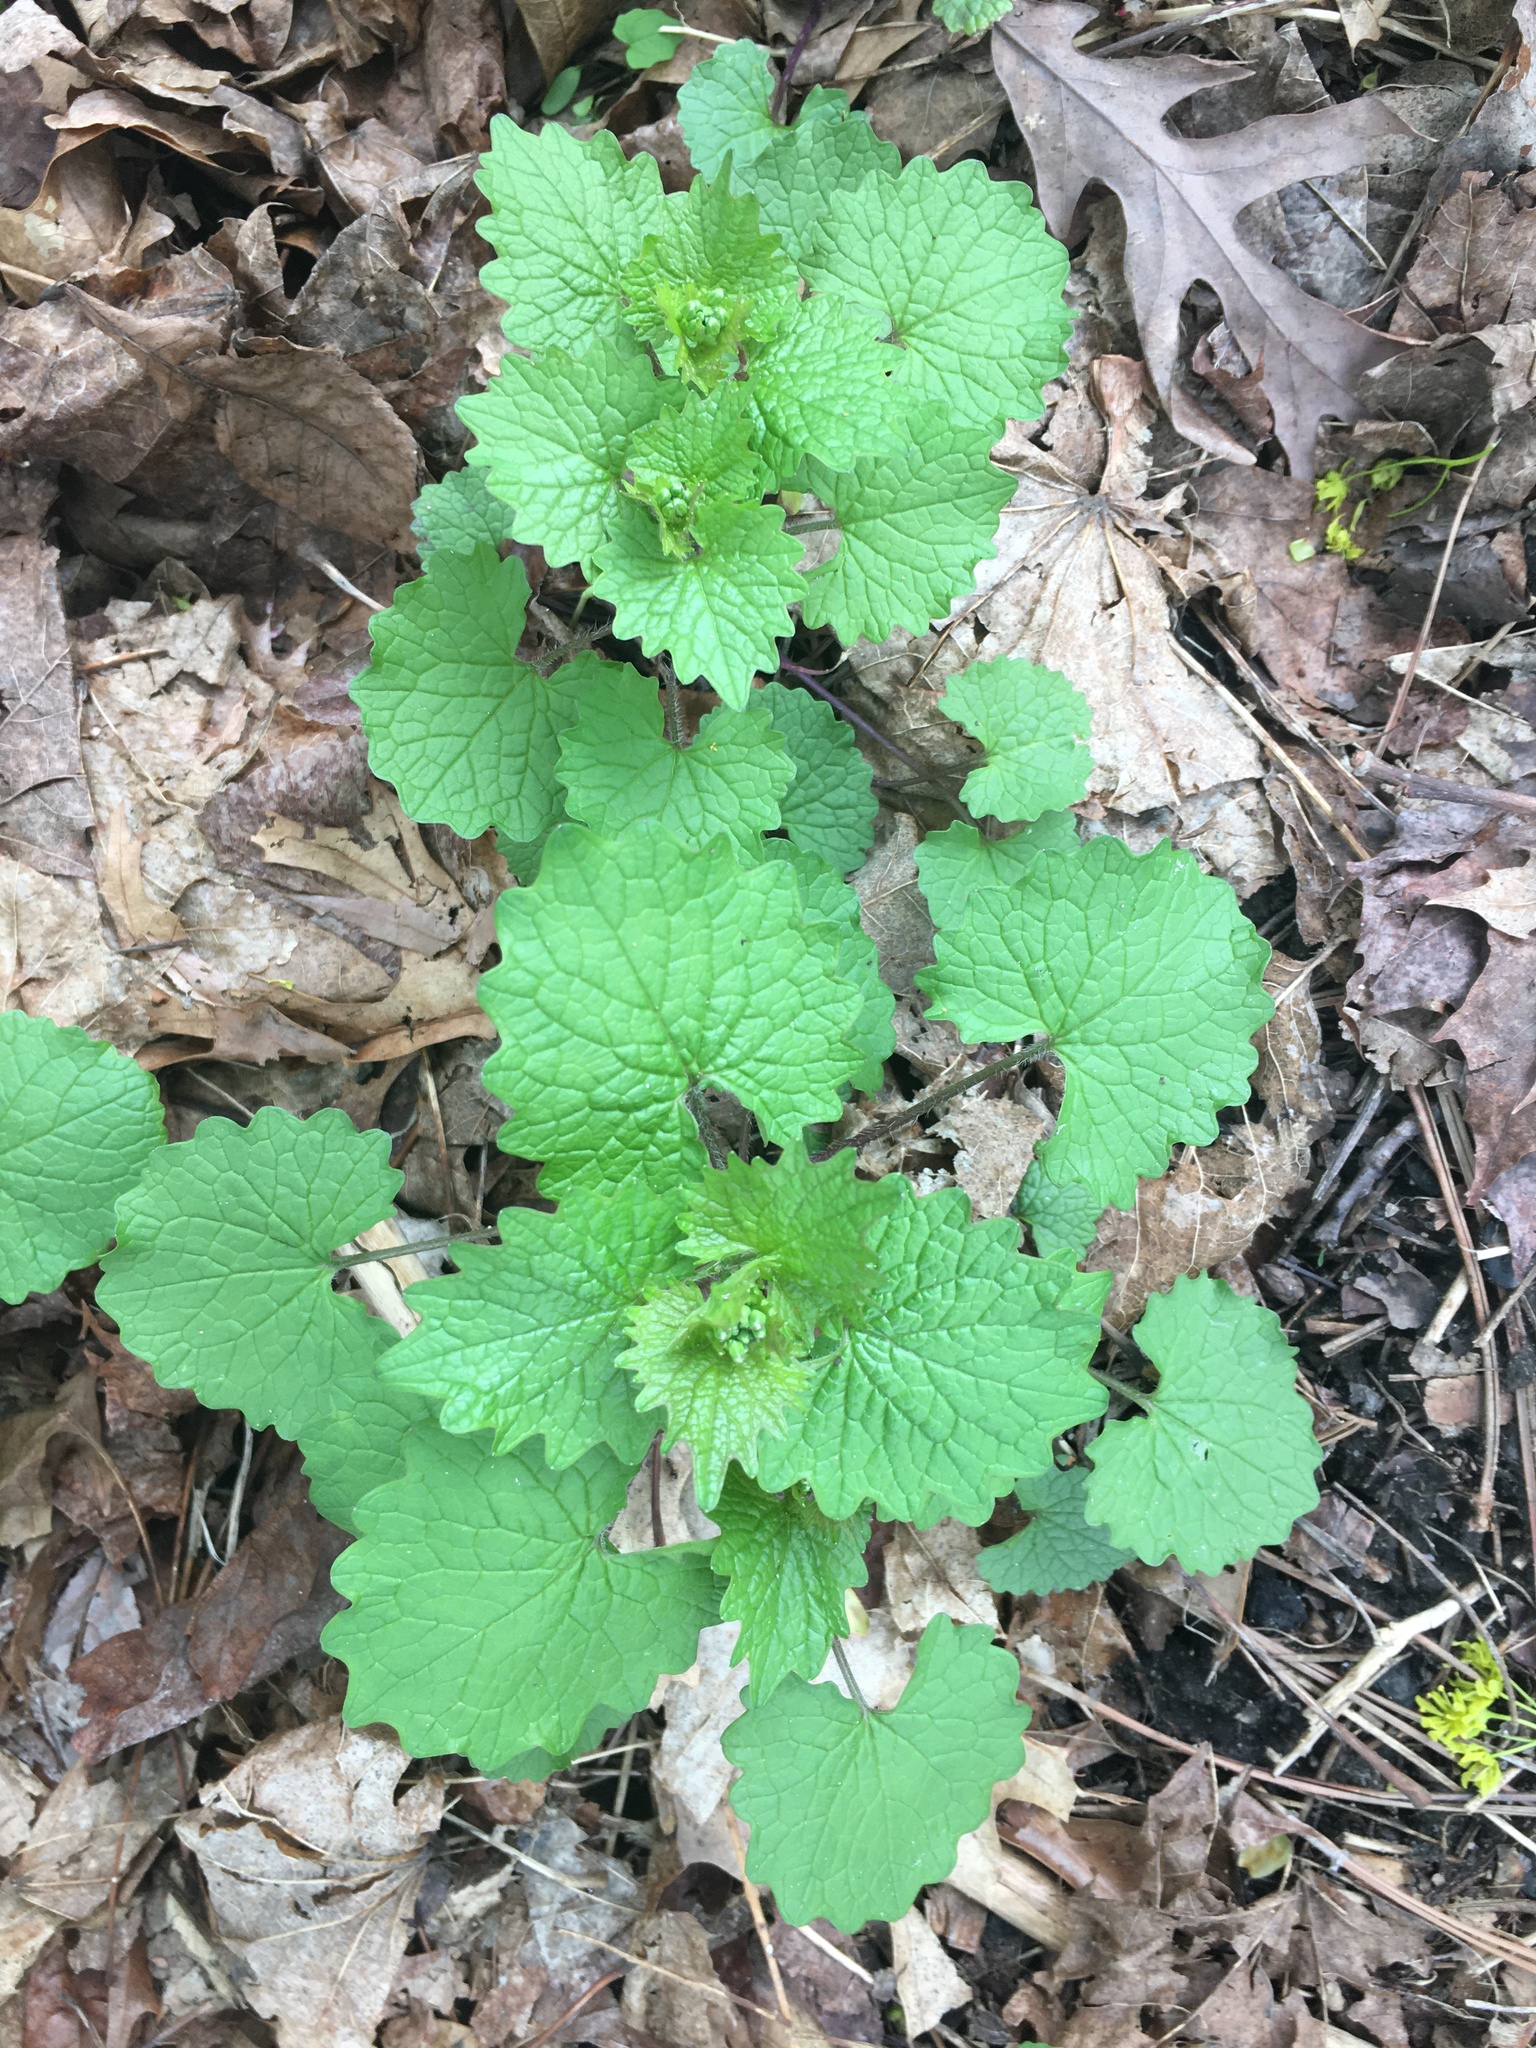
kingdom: Plantae
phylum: Tracheophyta
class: Magnoliopsida
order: Brassicales
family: Brassicaceae
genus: Alliaria
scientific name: Alliaria petiolata
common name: Garlic mustard
